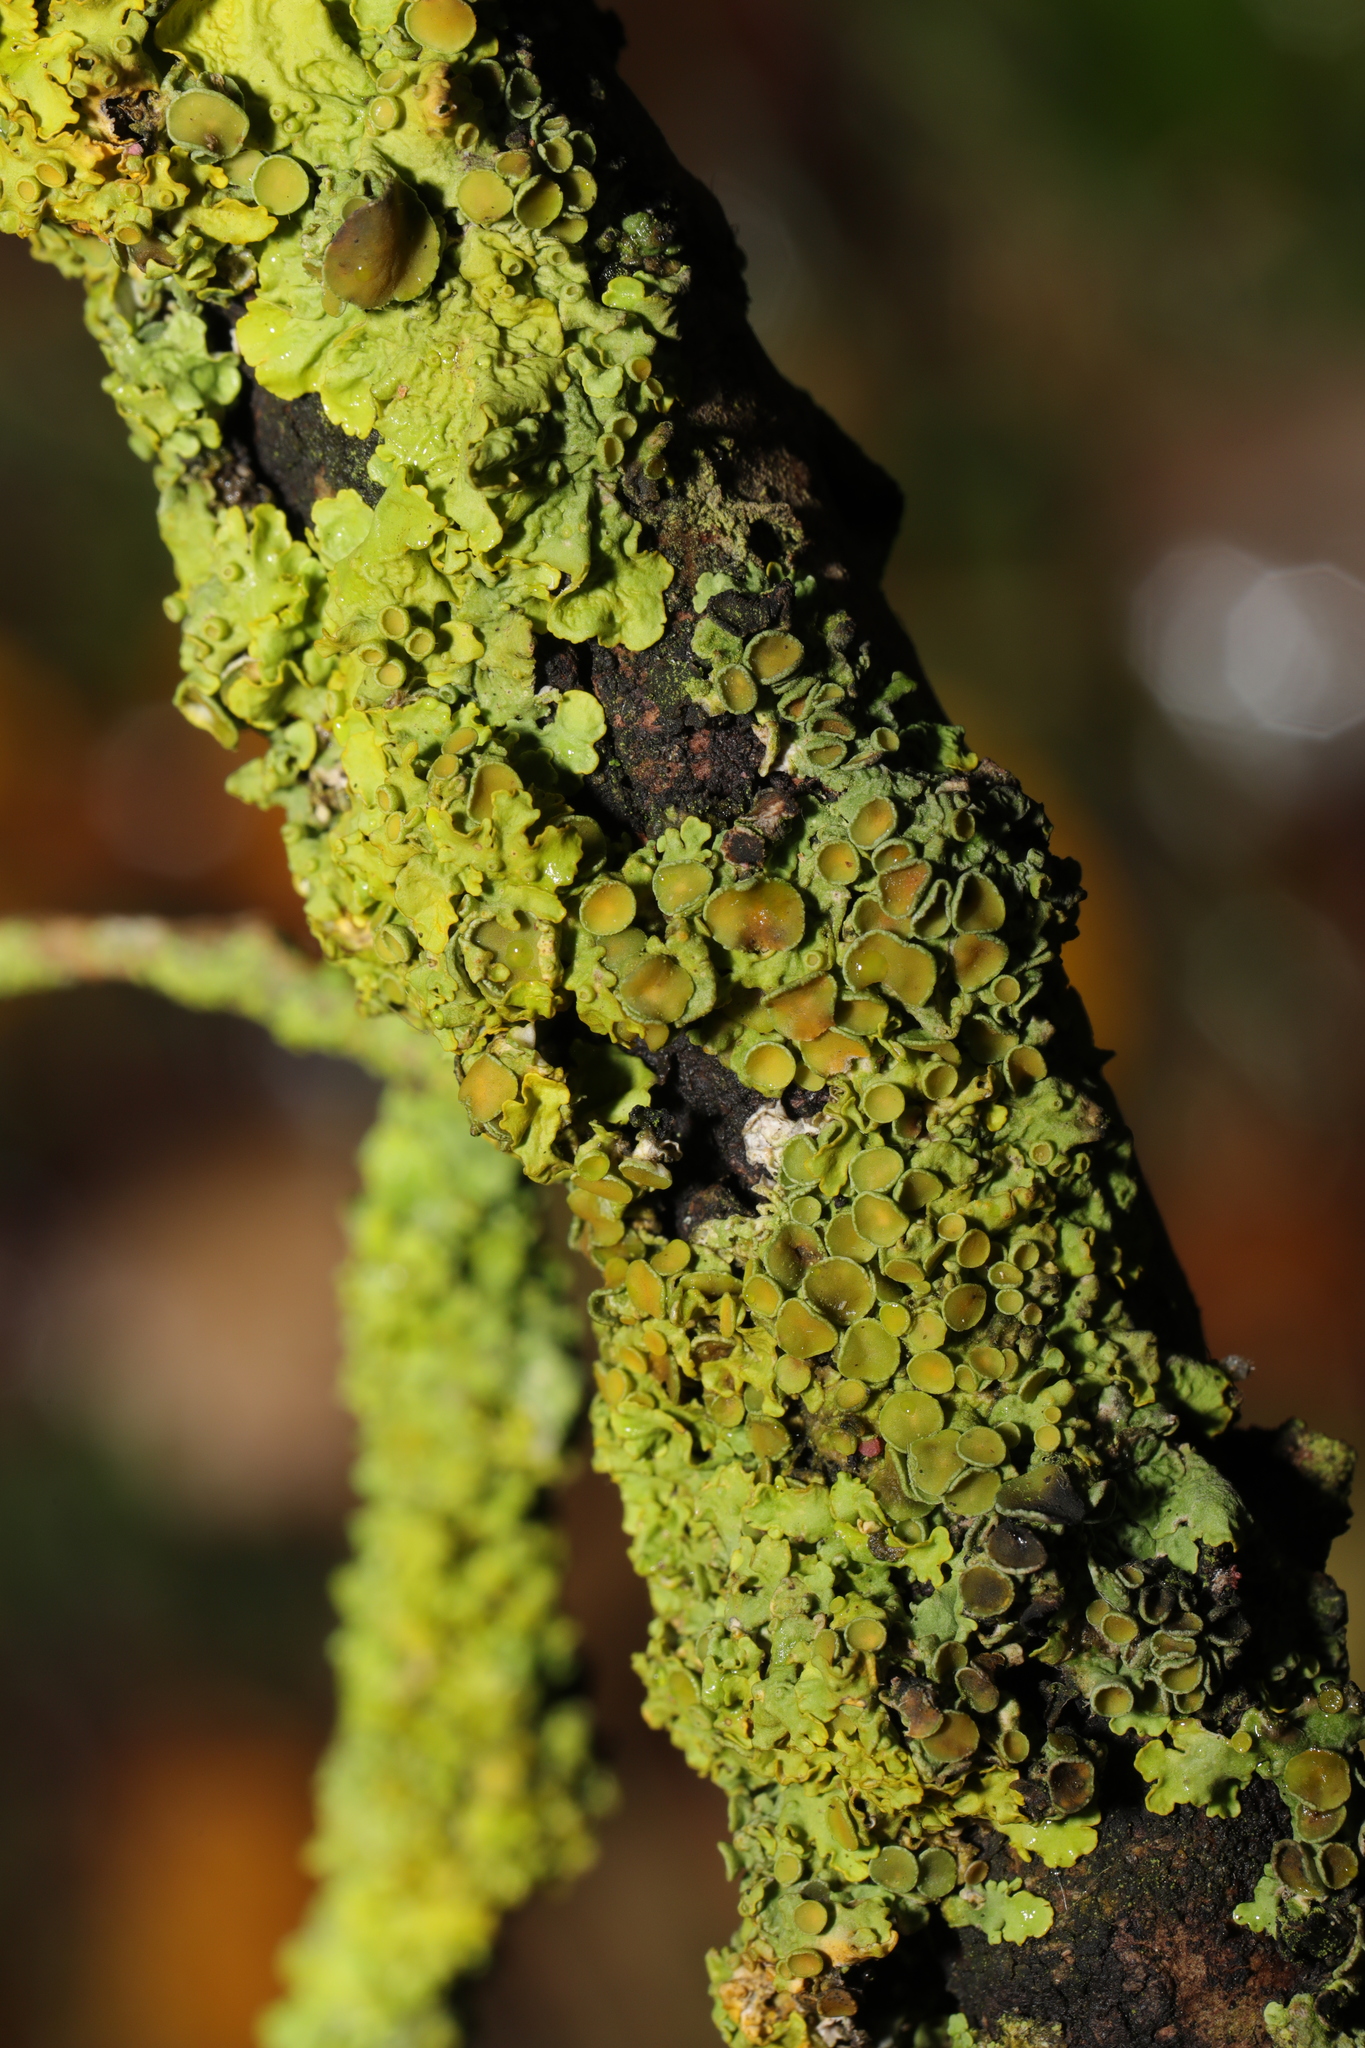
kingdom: Fungi
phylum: Ascomycota
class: Lecanoromycetes
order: Teloschistales
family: Teloschistaceae
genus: Xanthoria
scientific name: Xanthoria parietina
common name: Common orange lichen
